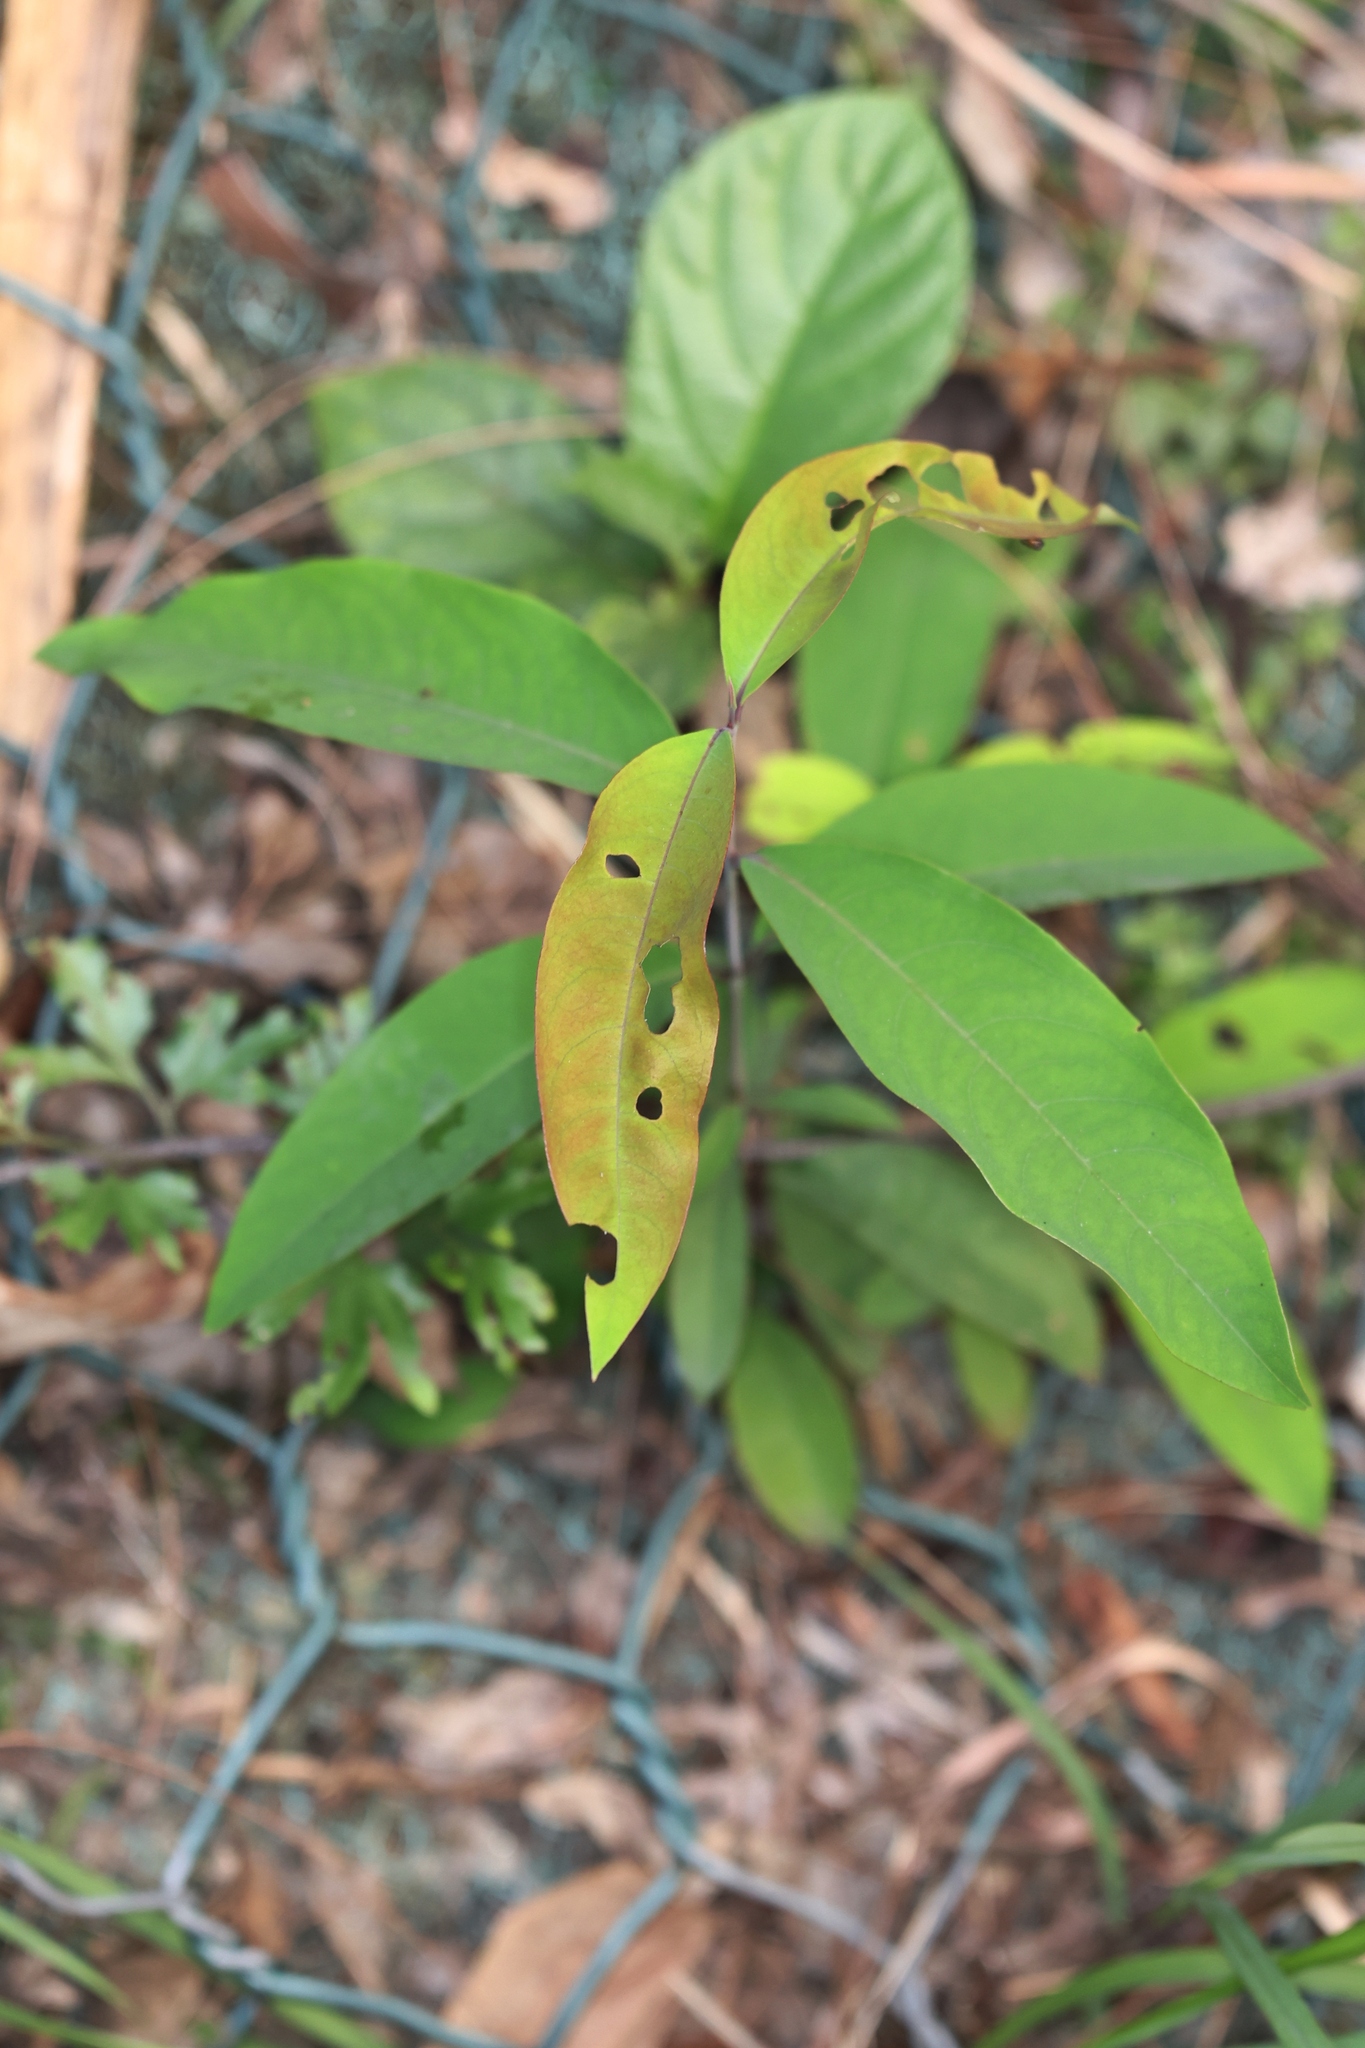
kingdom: Plantae
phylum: Tracheophyta
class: Magnoliopsida
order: Malpighiales
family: Hypericaceae
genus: Cratoxylum
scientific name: Cratoxylum cochinchinense
